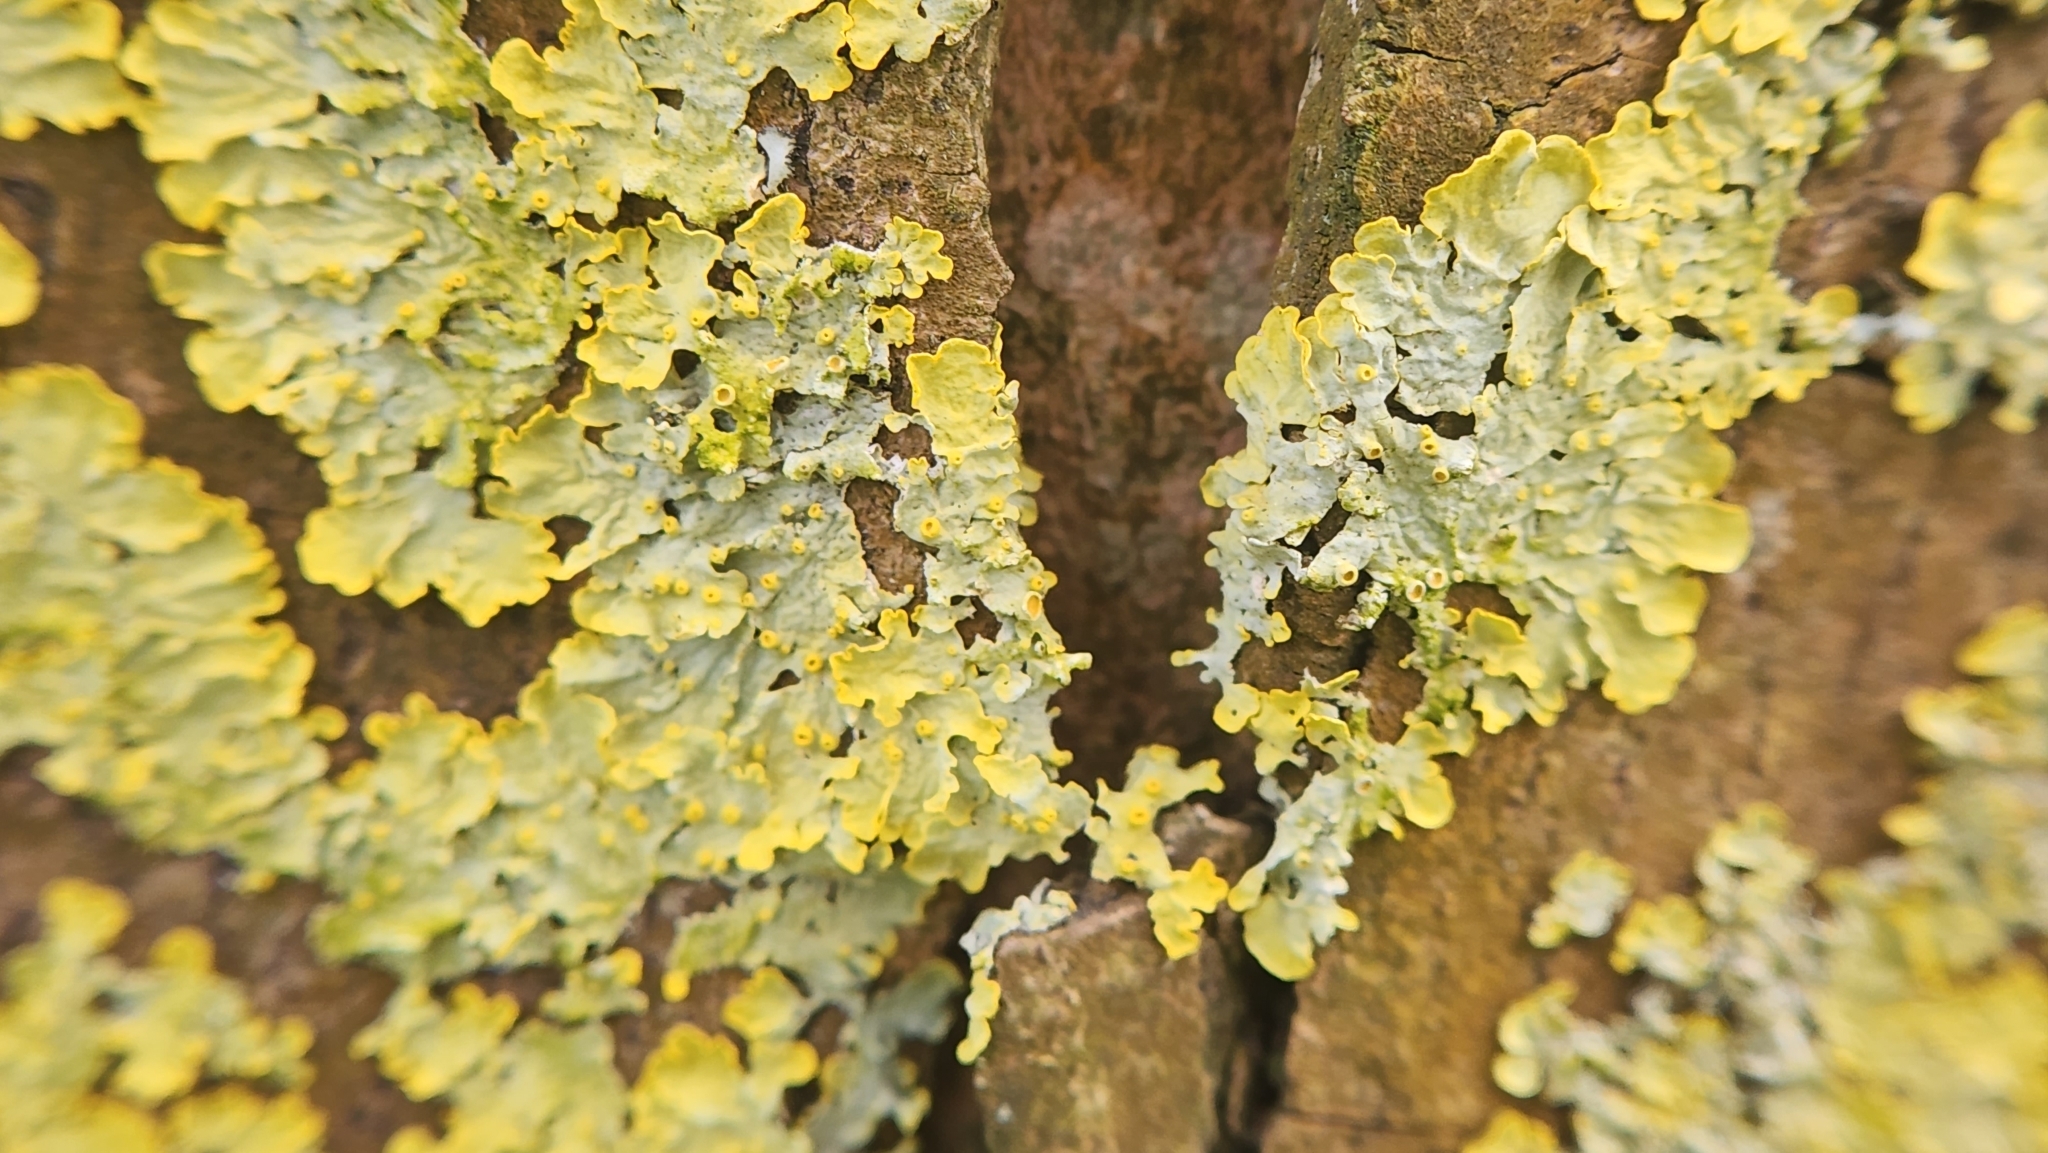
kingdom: Fungi
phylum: Ascomycota
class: Lecanoromycetes
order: Teloschistales
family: Teloschistaceae
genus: Xanthoria
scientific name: Xanthoria parietina
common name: Common orange lichen
